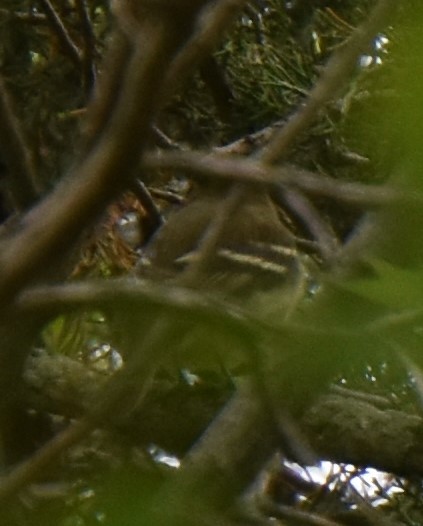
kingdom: Animalia
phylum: Chordata
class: Aves
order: Passeriformes
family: Tyrannidae
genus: Empidonax
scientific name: Empidonax virescens
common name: Acadian flycatcher
